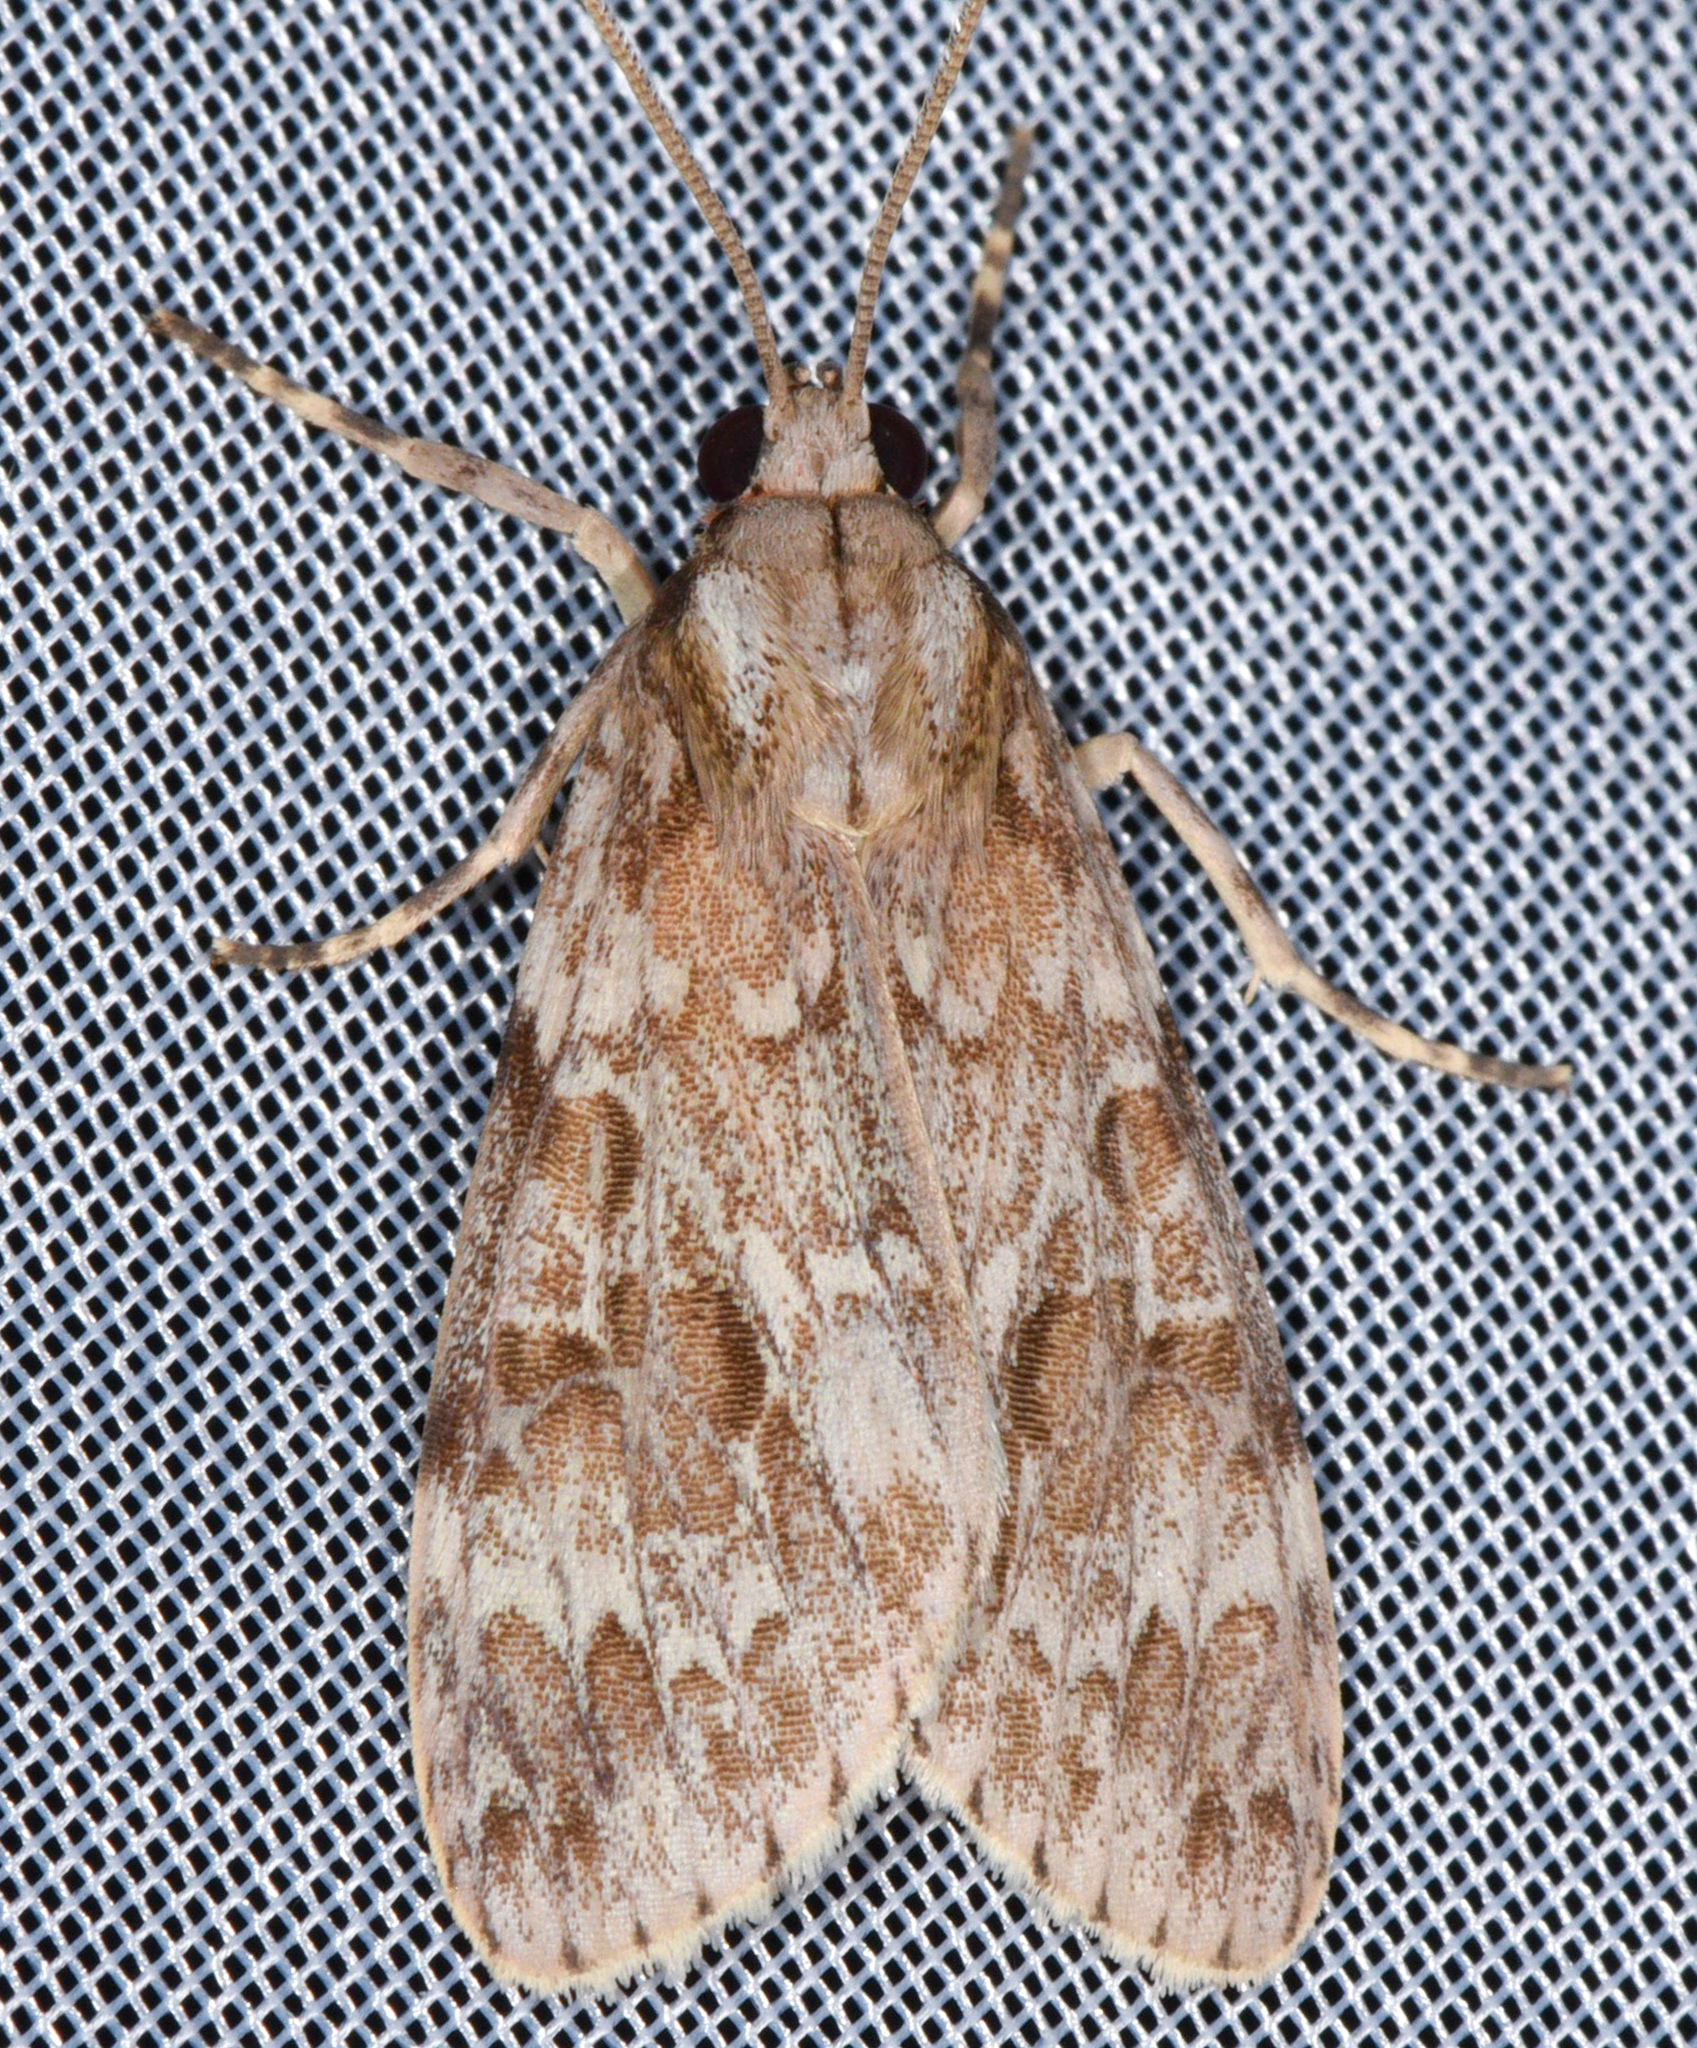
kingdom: Animalia
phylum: Arthropoda
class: Insecta
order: Lepidoptera
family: Erebidae
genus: Eucereon
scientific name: Eucereon maja
